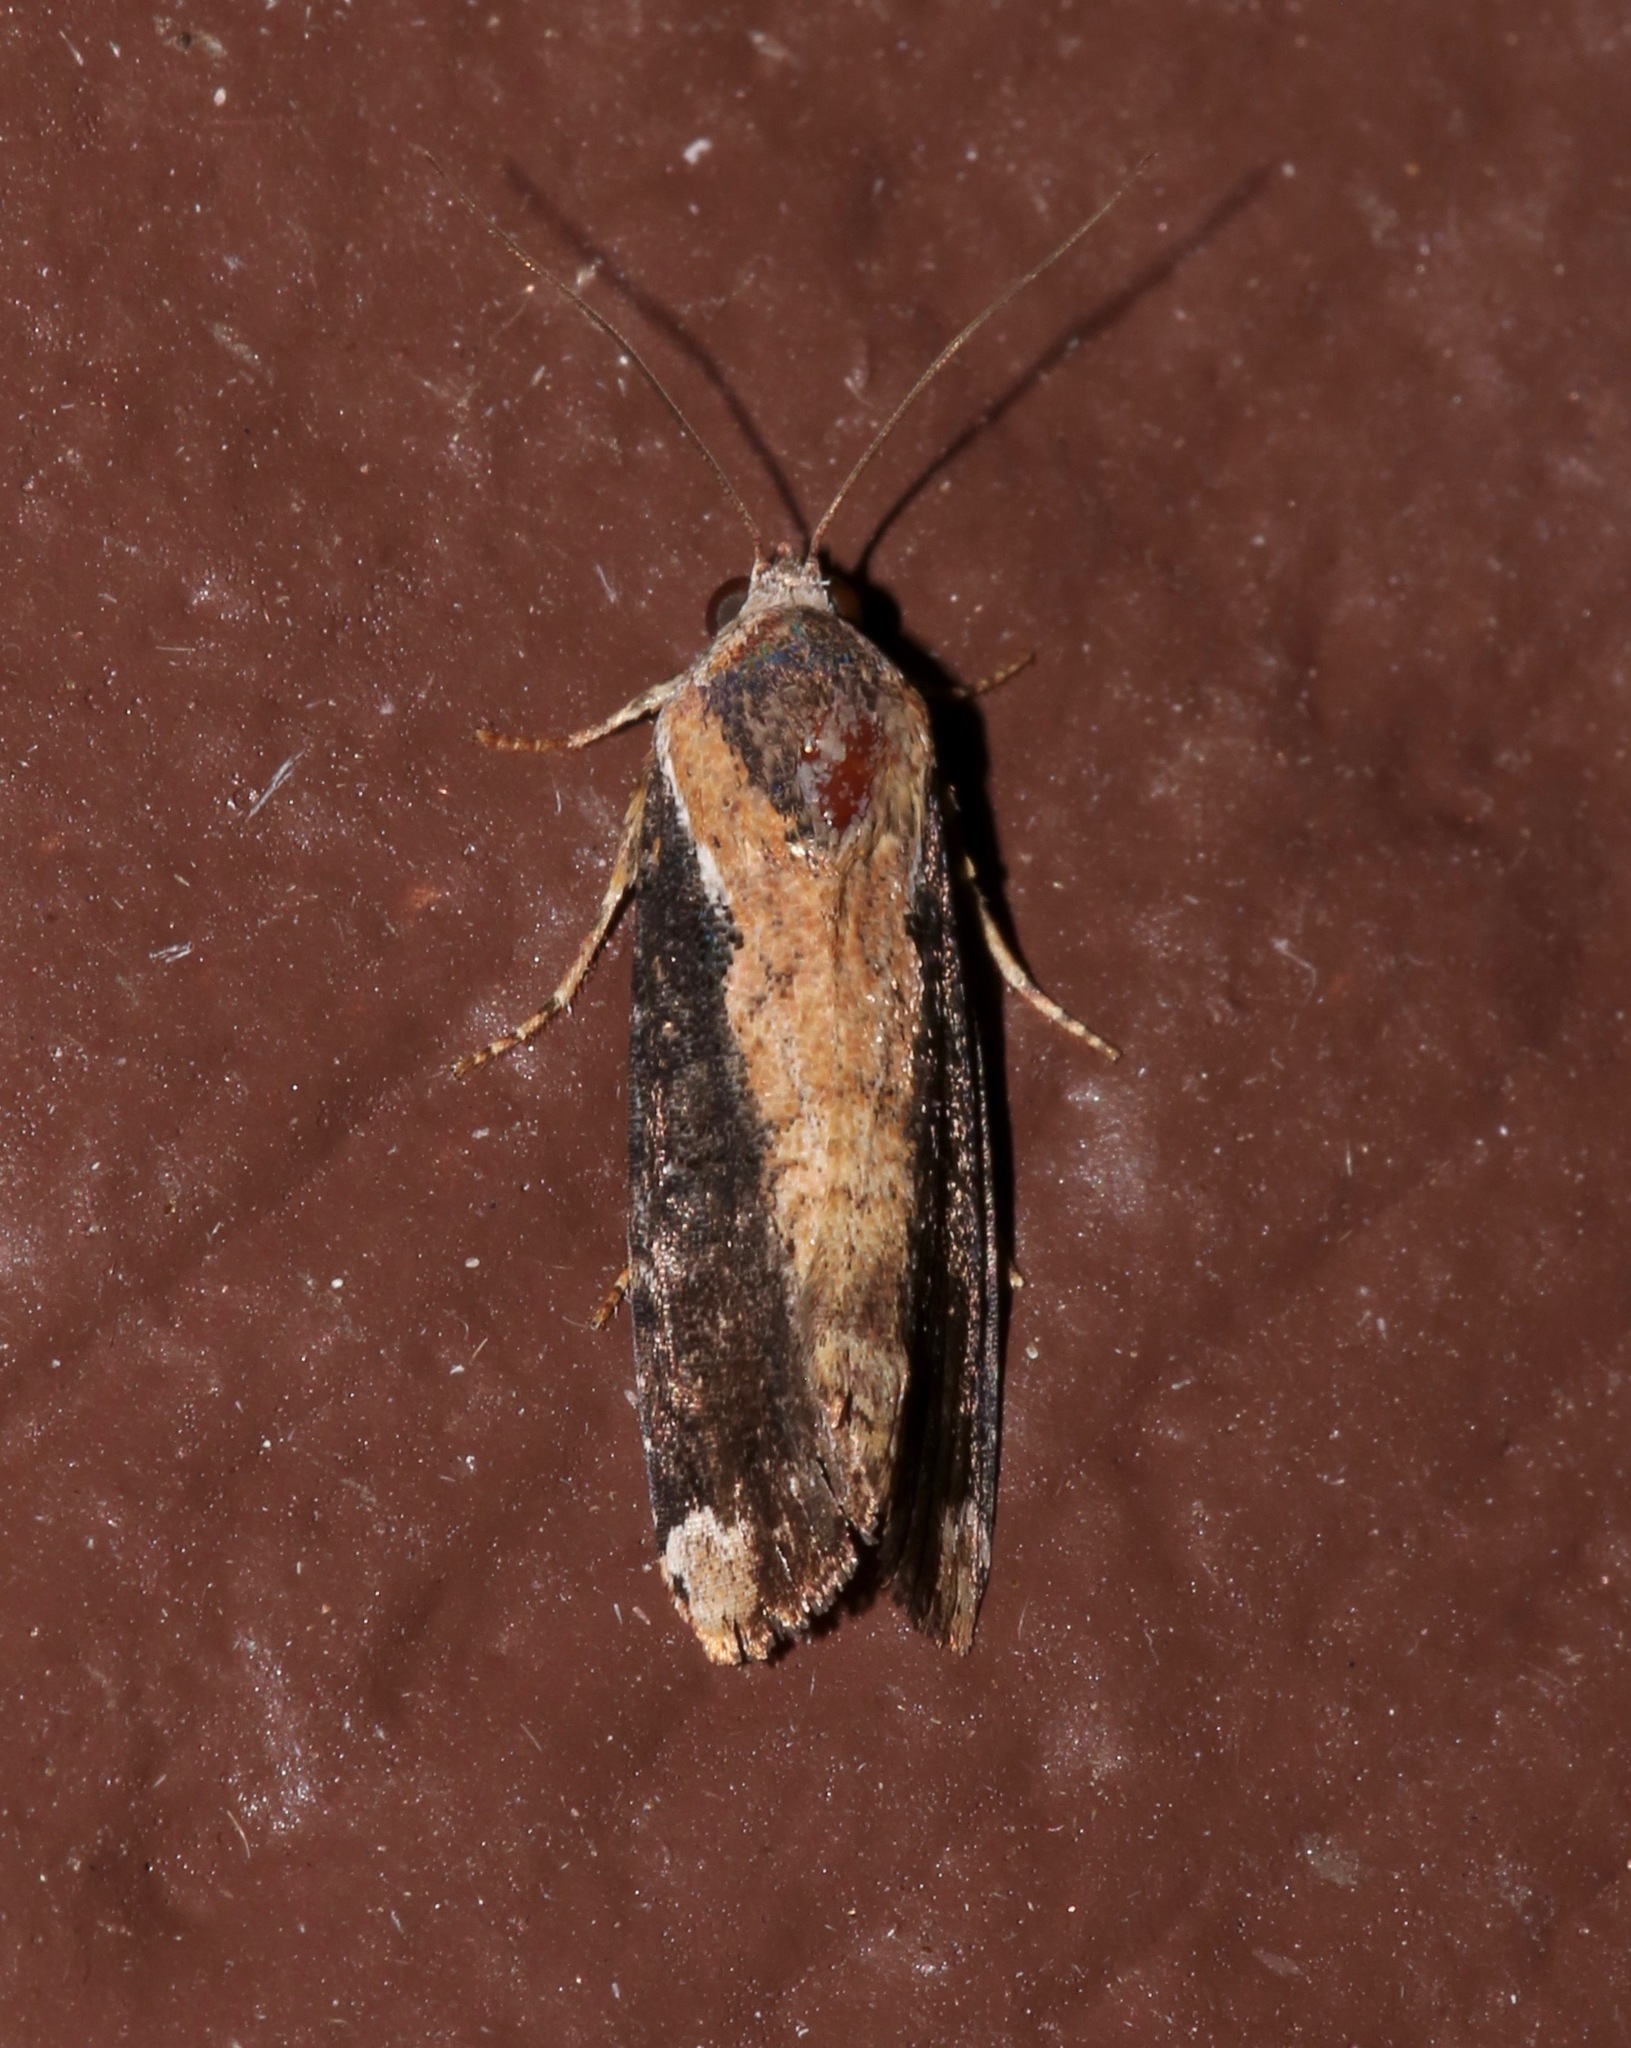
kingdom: Animalia
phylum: Arthropoda
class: Insecta
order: Lepidoptera
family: Noctuidae
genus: Magusa
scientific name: Magusa divaricata
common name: Orb narrow-winged moth
